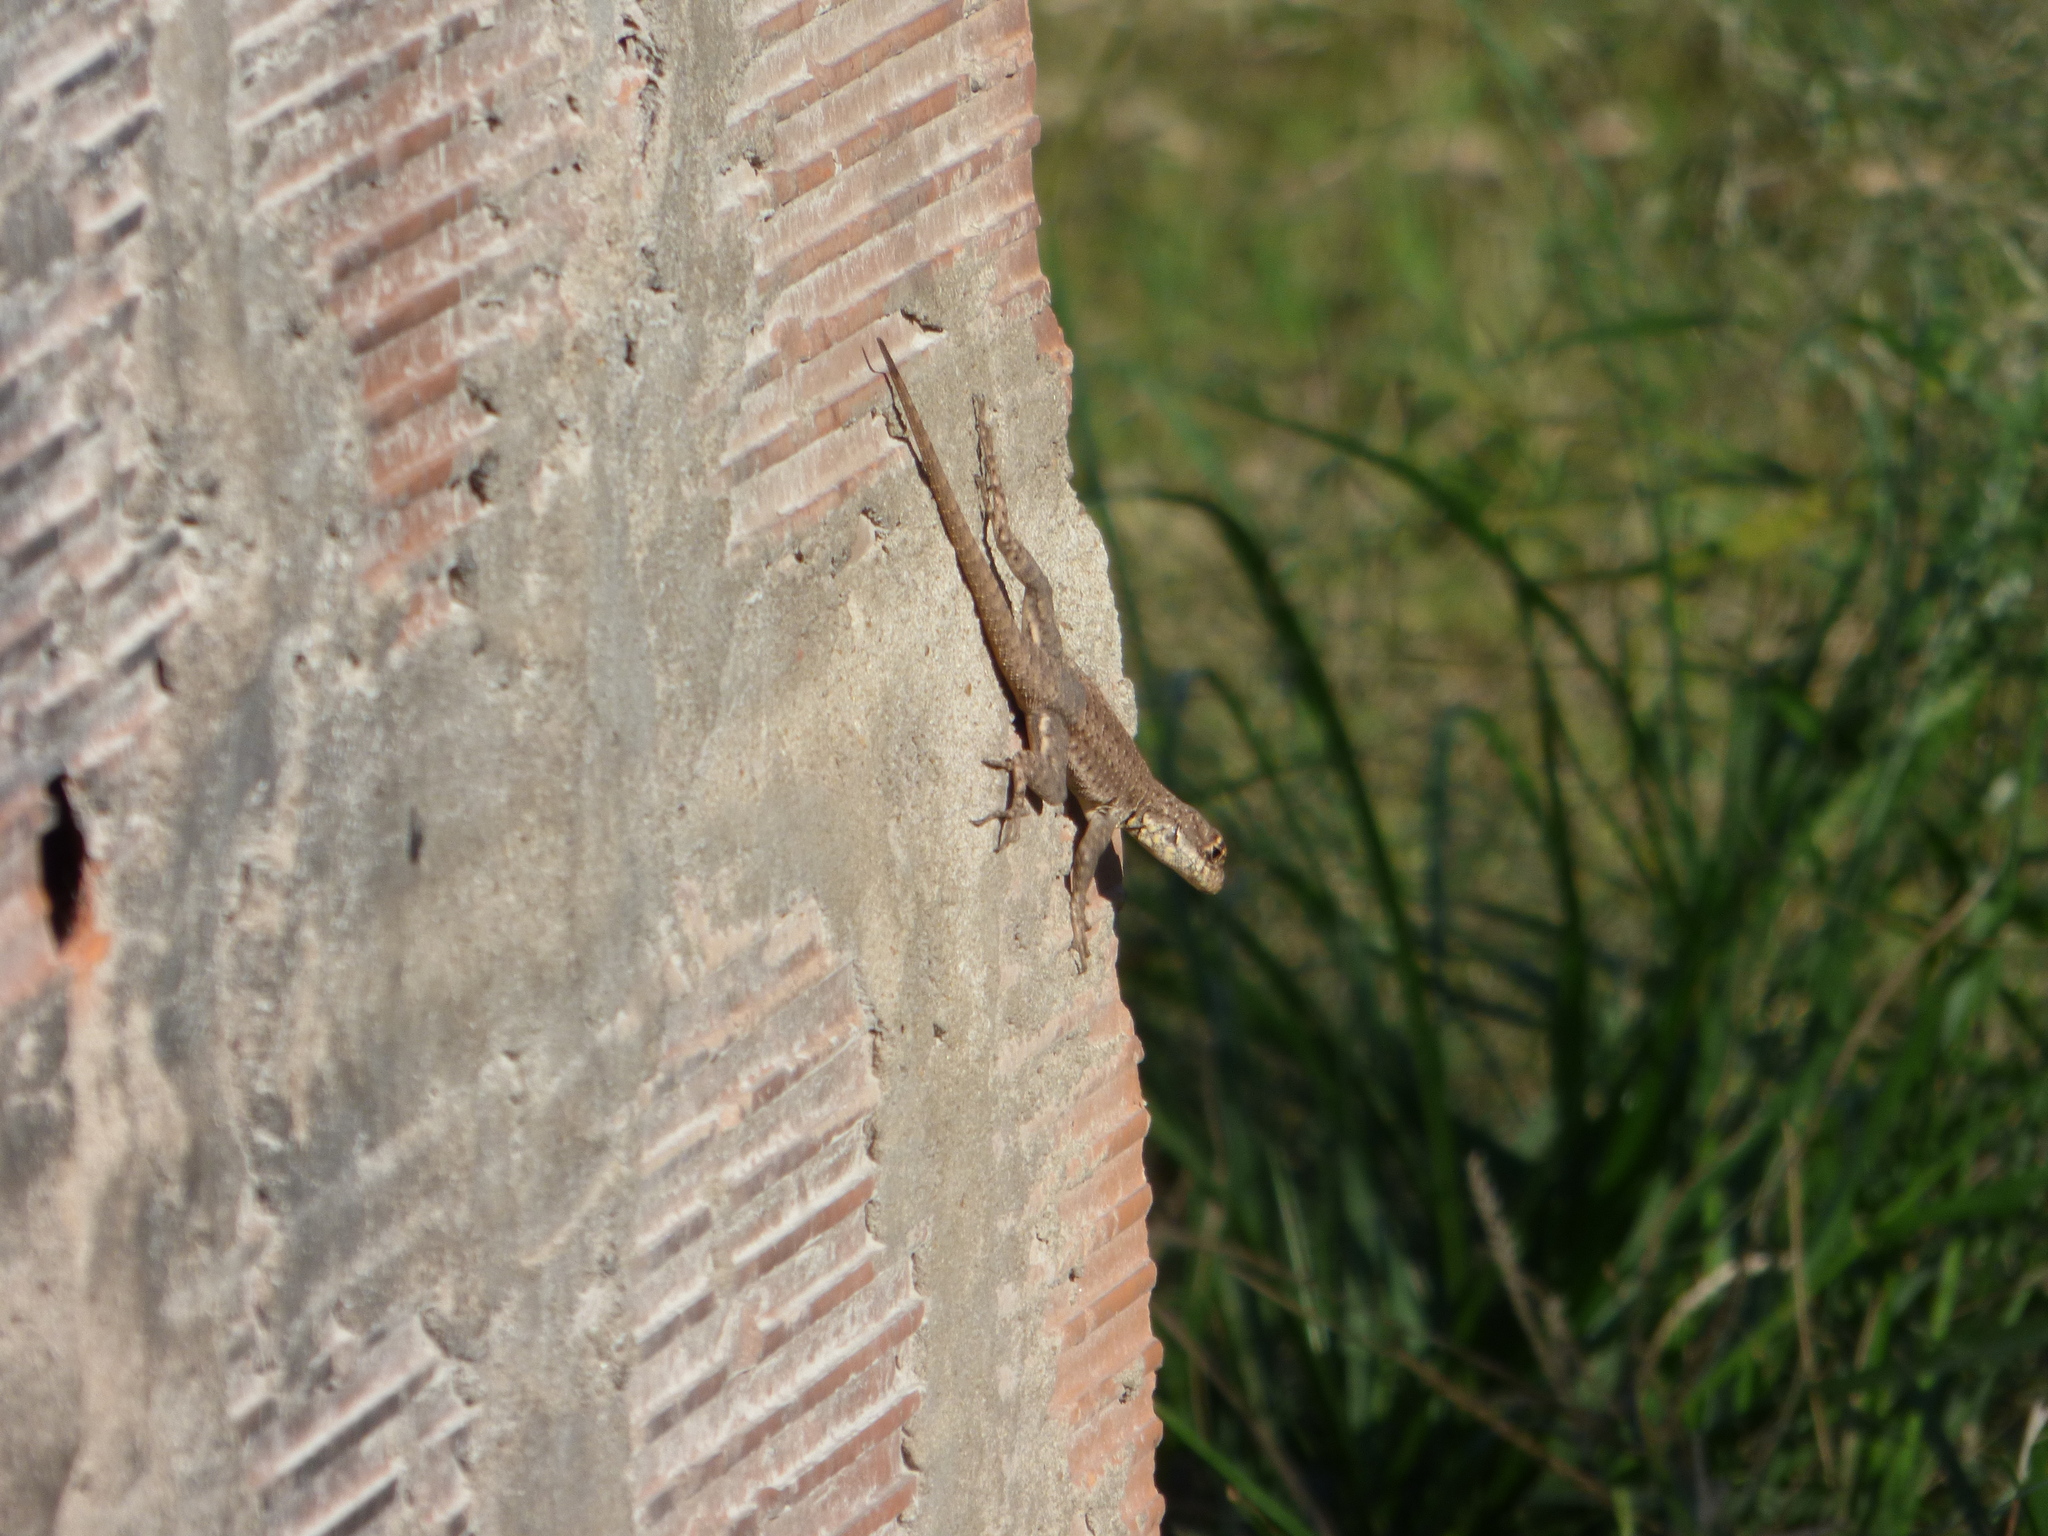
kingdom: Animalia
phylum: Chordata
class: Squamata
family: Tropiduridae
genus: Tropidurus
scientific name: Tropidurus torquatus
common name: Amazon lava lizard
